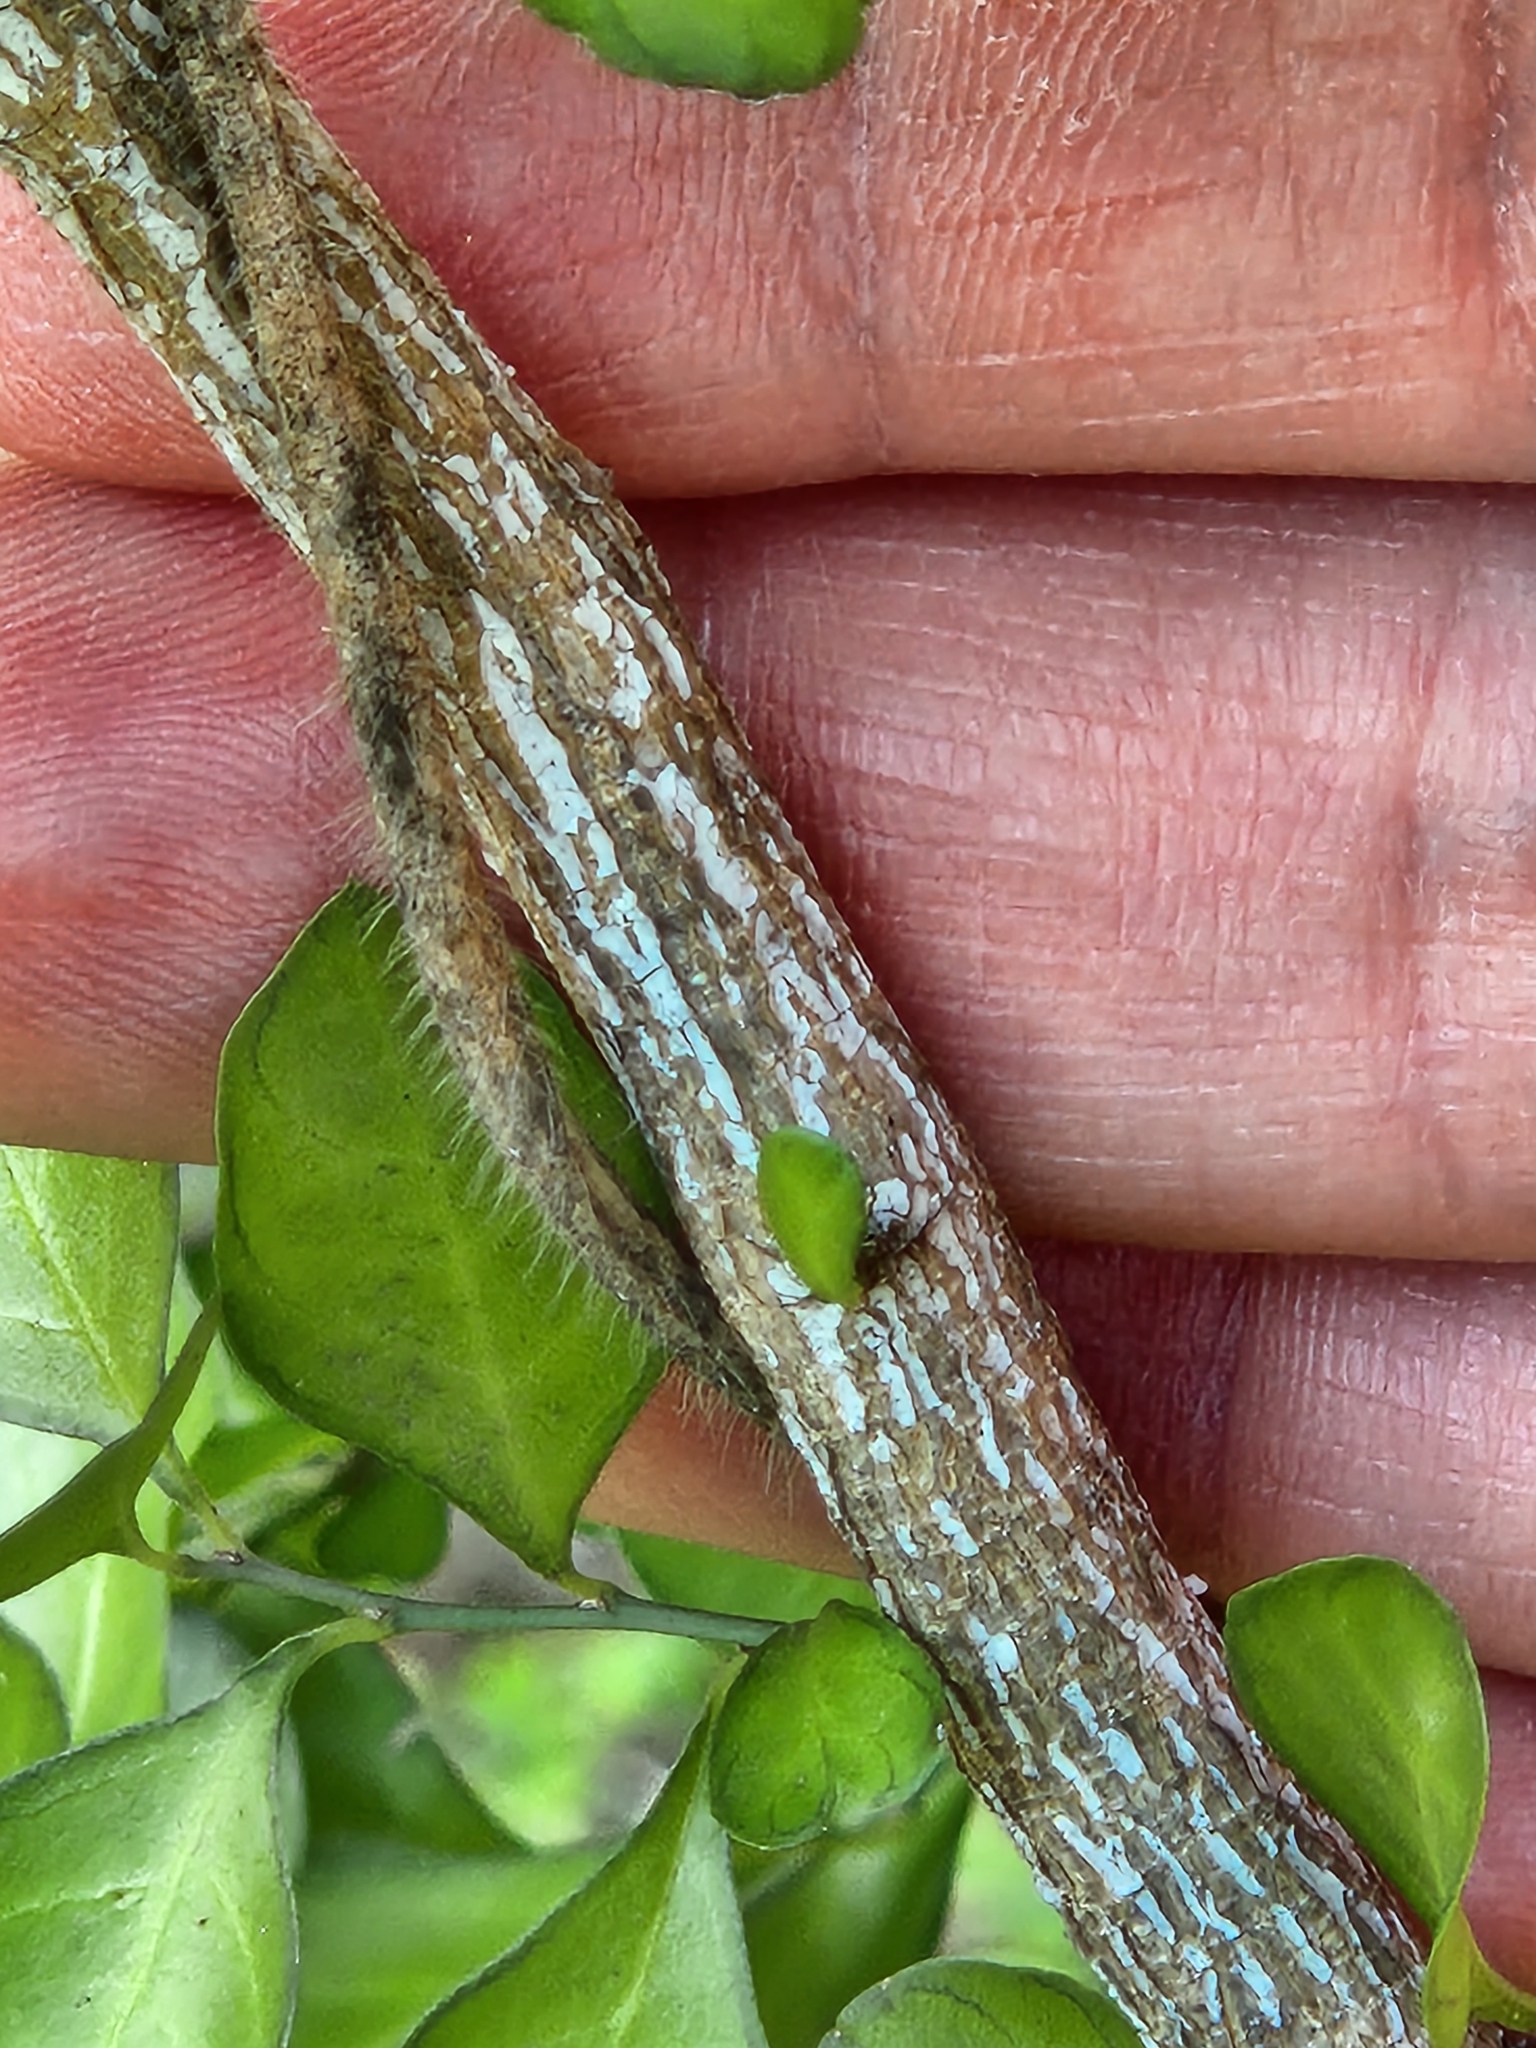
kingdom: Plantae
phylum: Tracheophyta
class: Magnoliopsida
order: Rosales
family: Rhamnaceae
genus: Condalia
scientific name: Condalia hookeri
